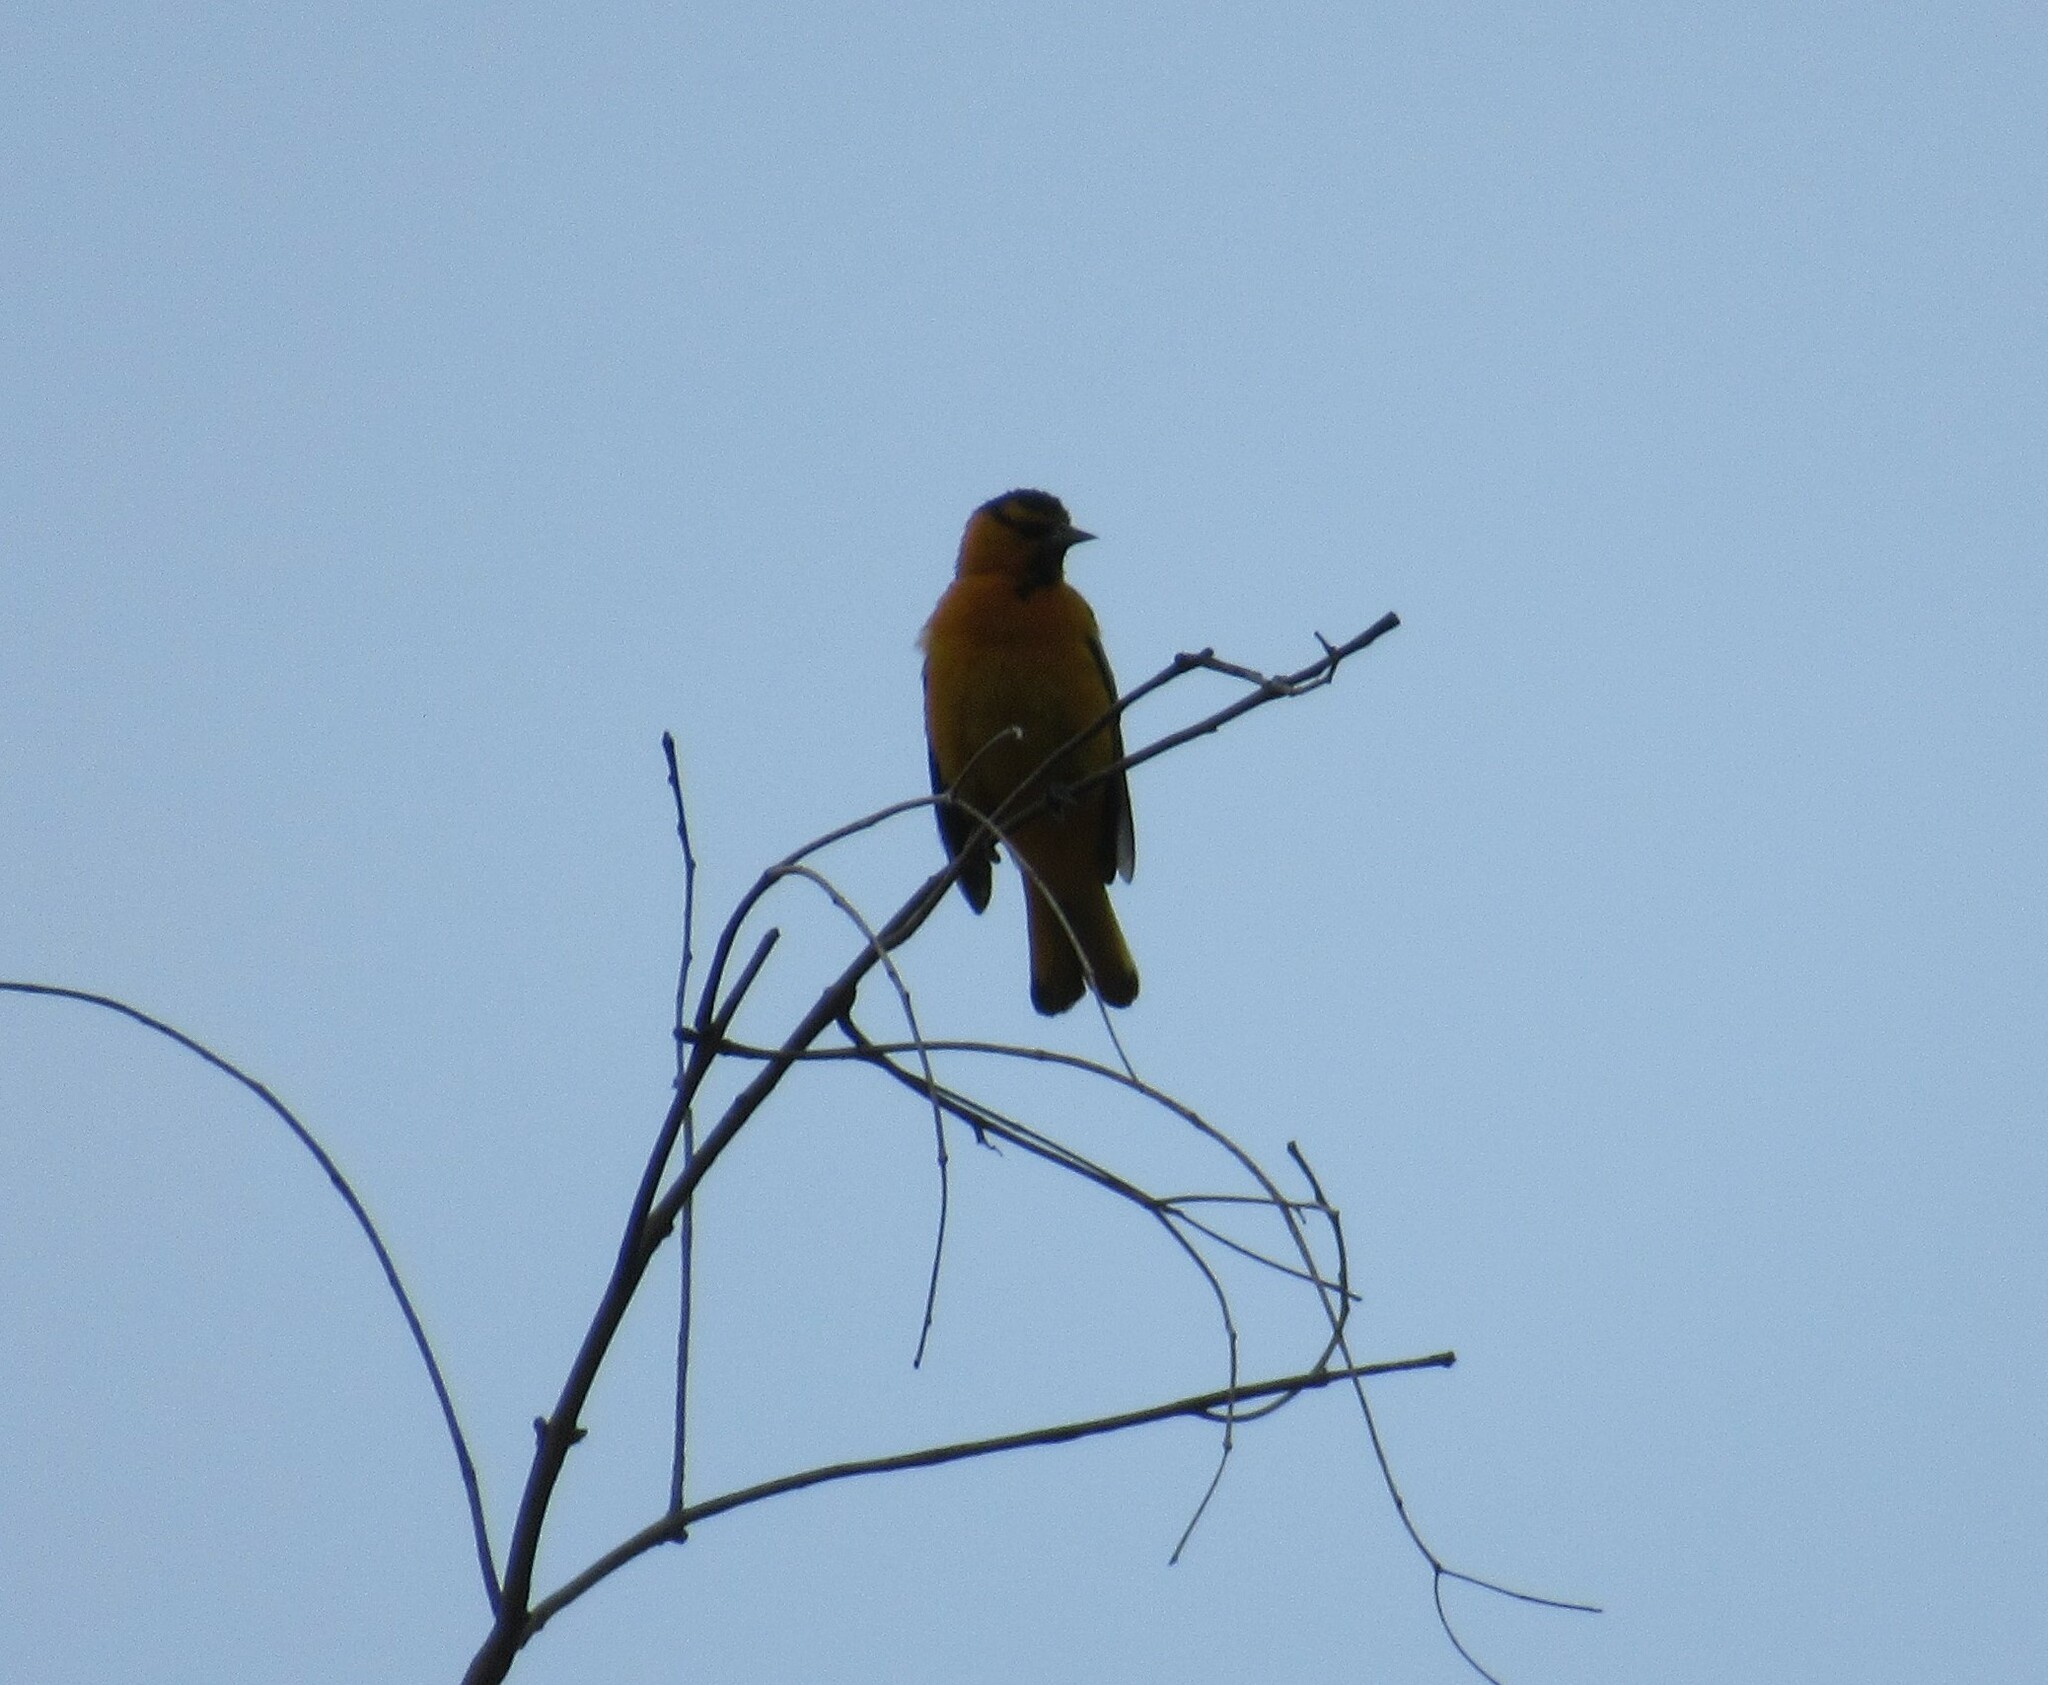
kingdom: Animalia
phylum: Chordata
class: Aves
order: Passeriformes
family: Icteridae
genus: Icterus
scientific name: Icterus bullockii
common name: Bullock's oriole
